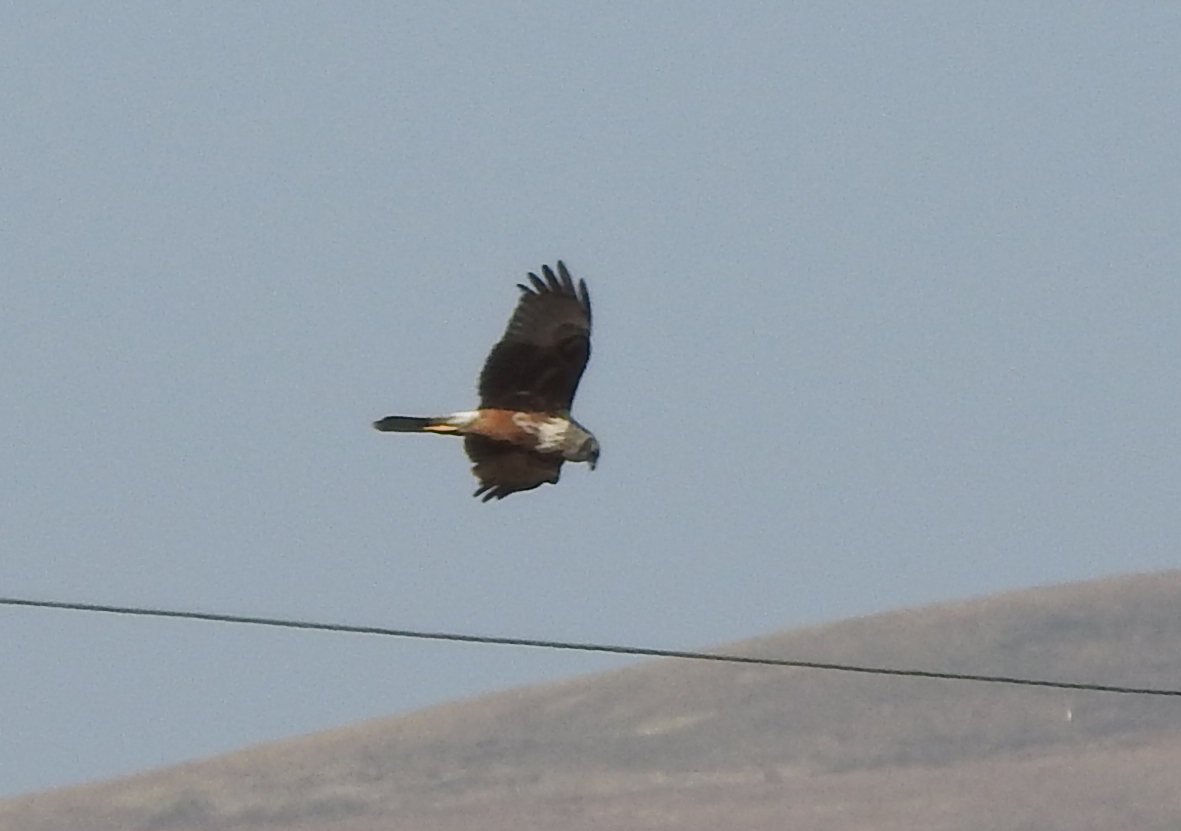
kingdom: Animalia
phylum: Chordata
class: Aves
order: Accipitriformes
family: Accipitridae
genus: Circus
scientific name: Circus spilonotus
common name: Eastern marsh-harrier
